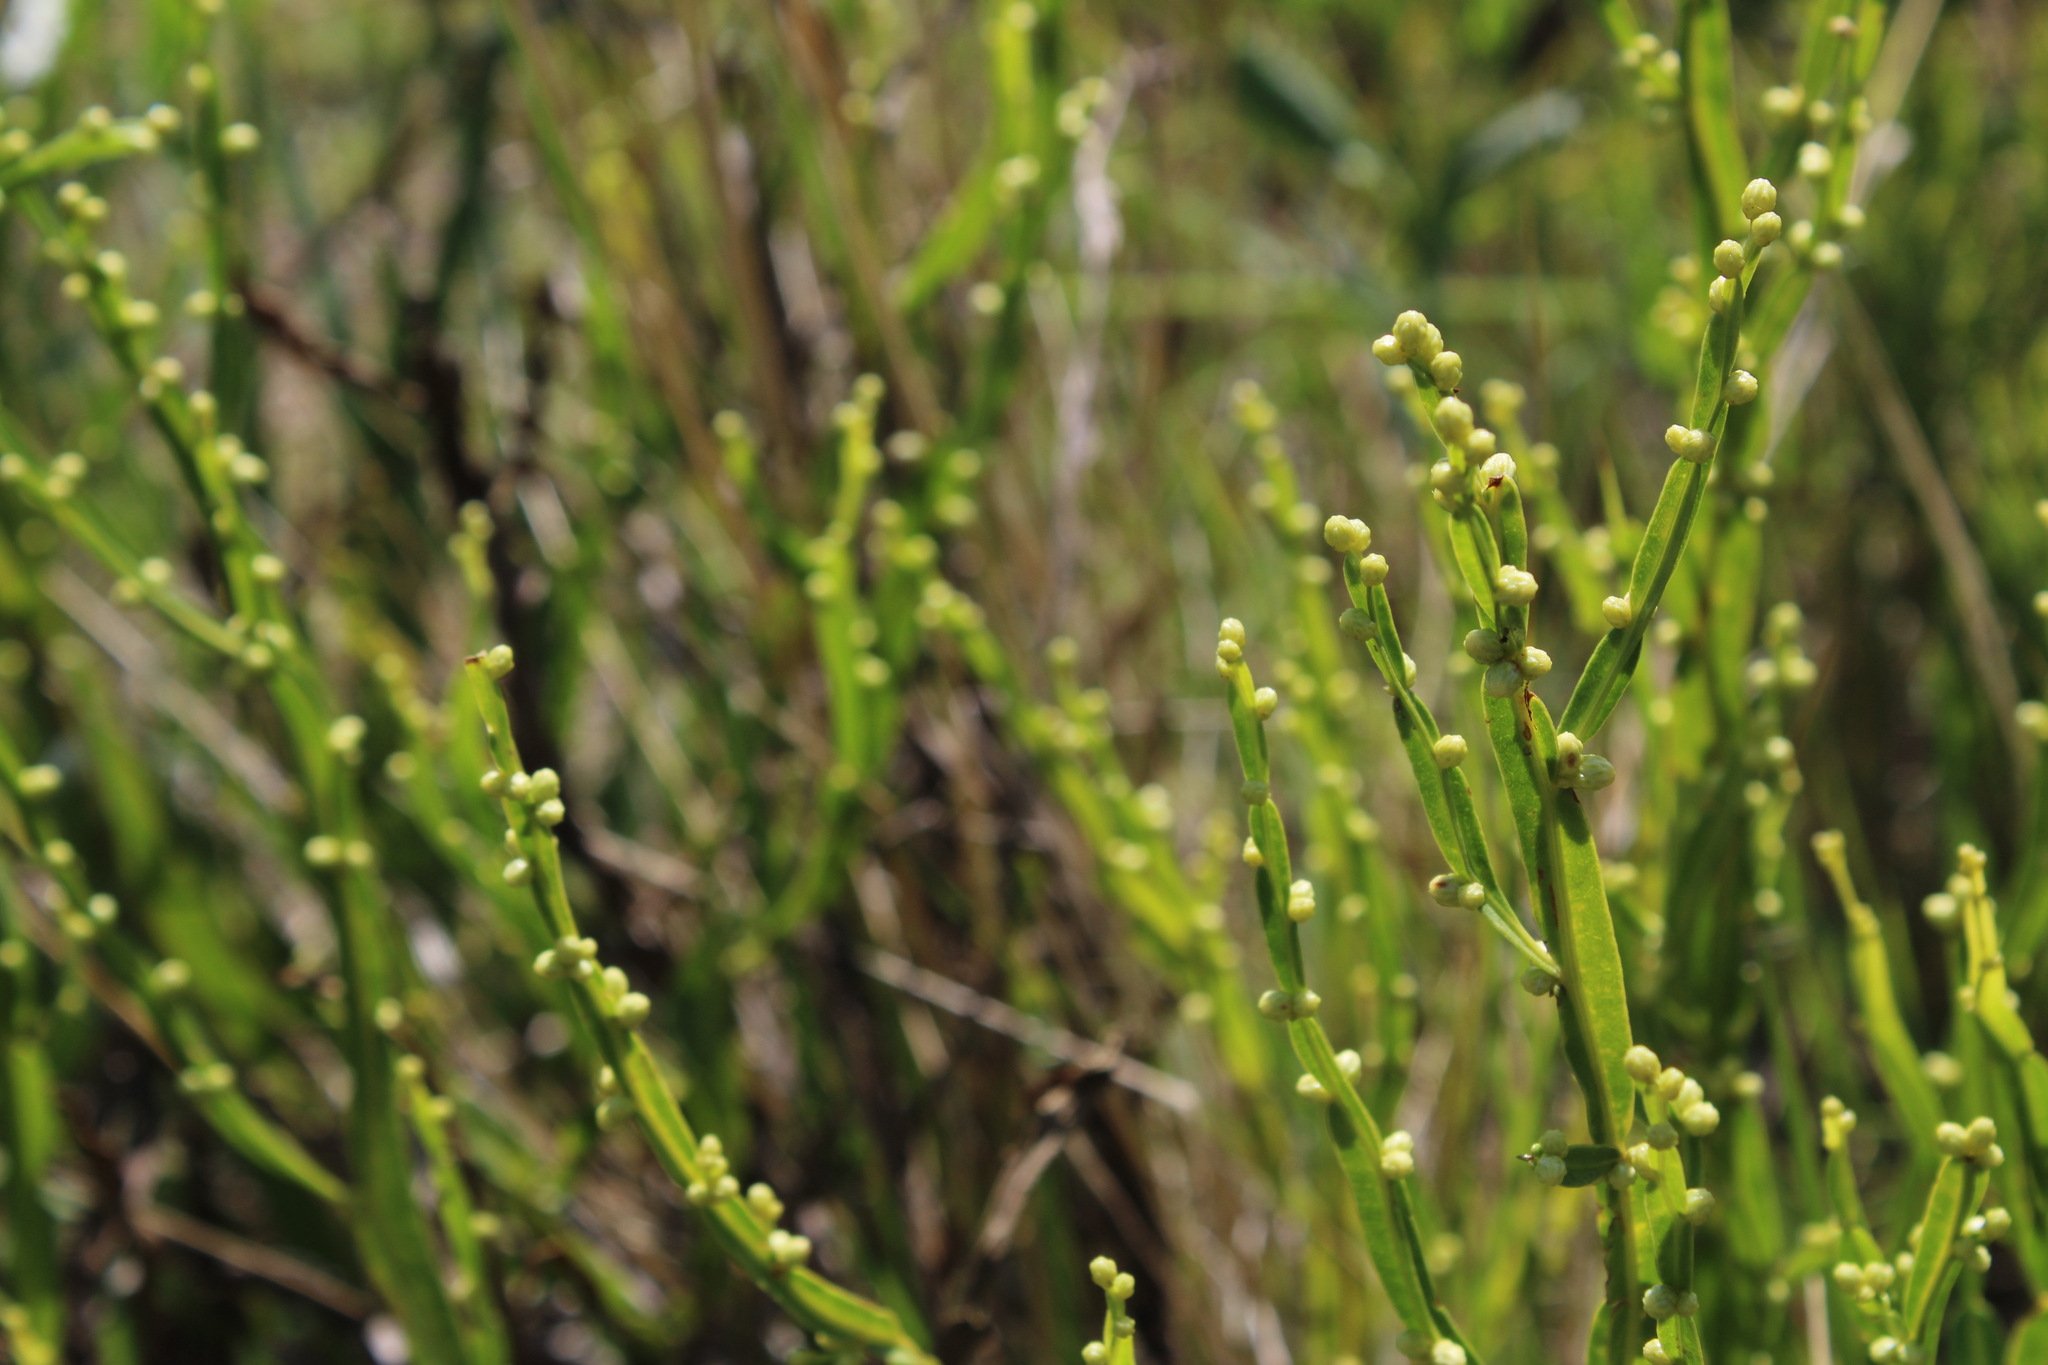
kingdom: Plantae
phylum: Tracheophyta
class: Magnoliopsida
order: Asterales
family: Asteraceae
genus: Baccharis
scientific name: Baccharis trimera
